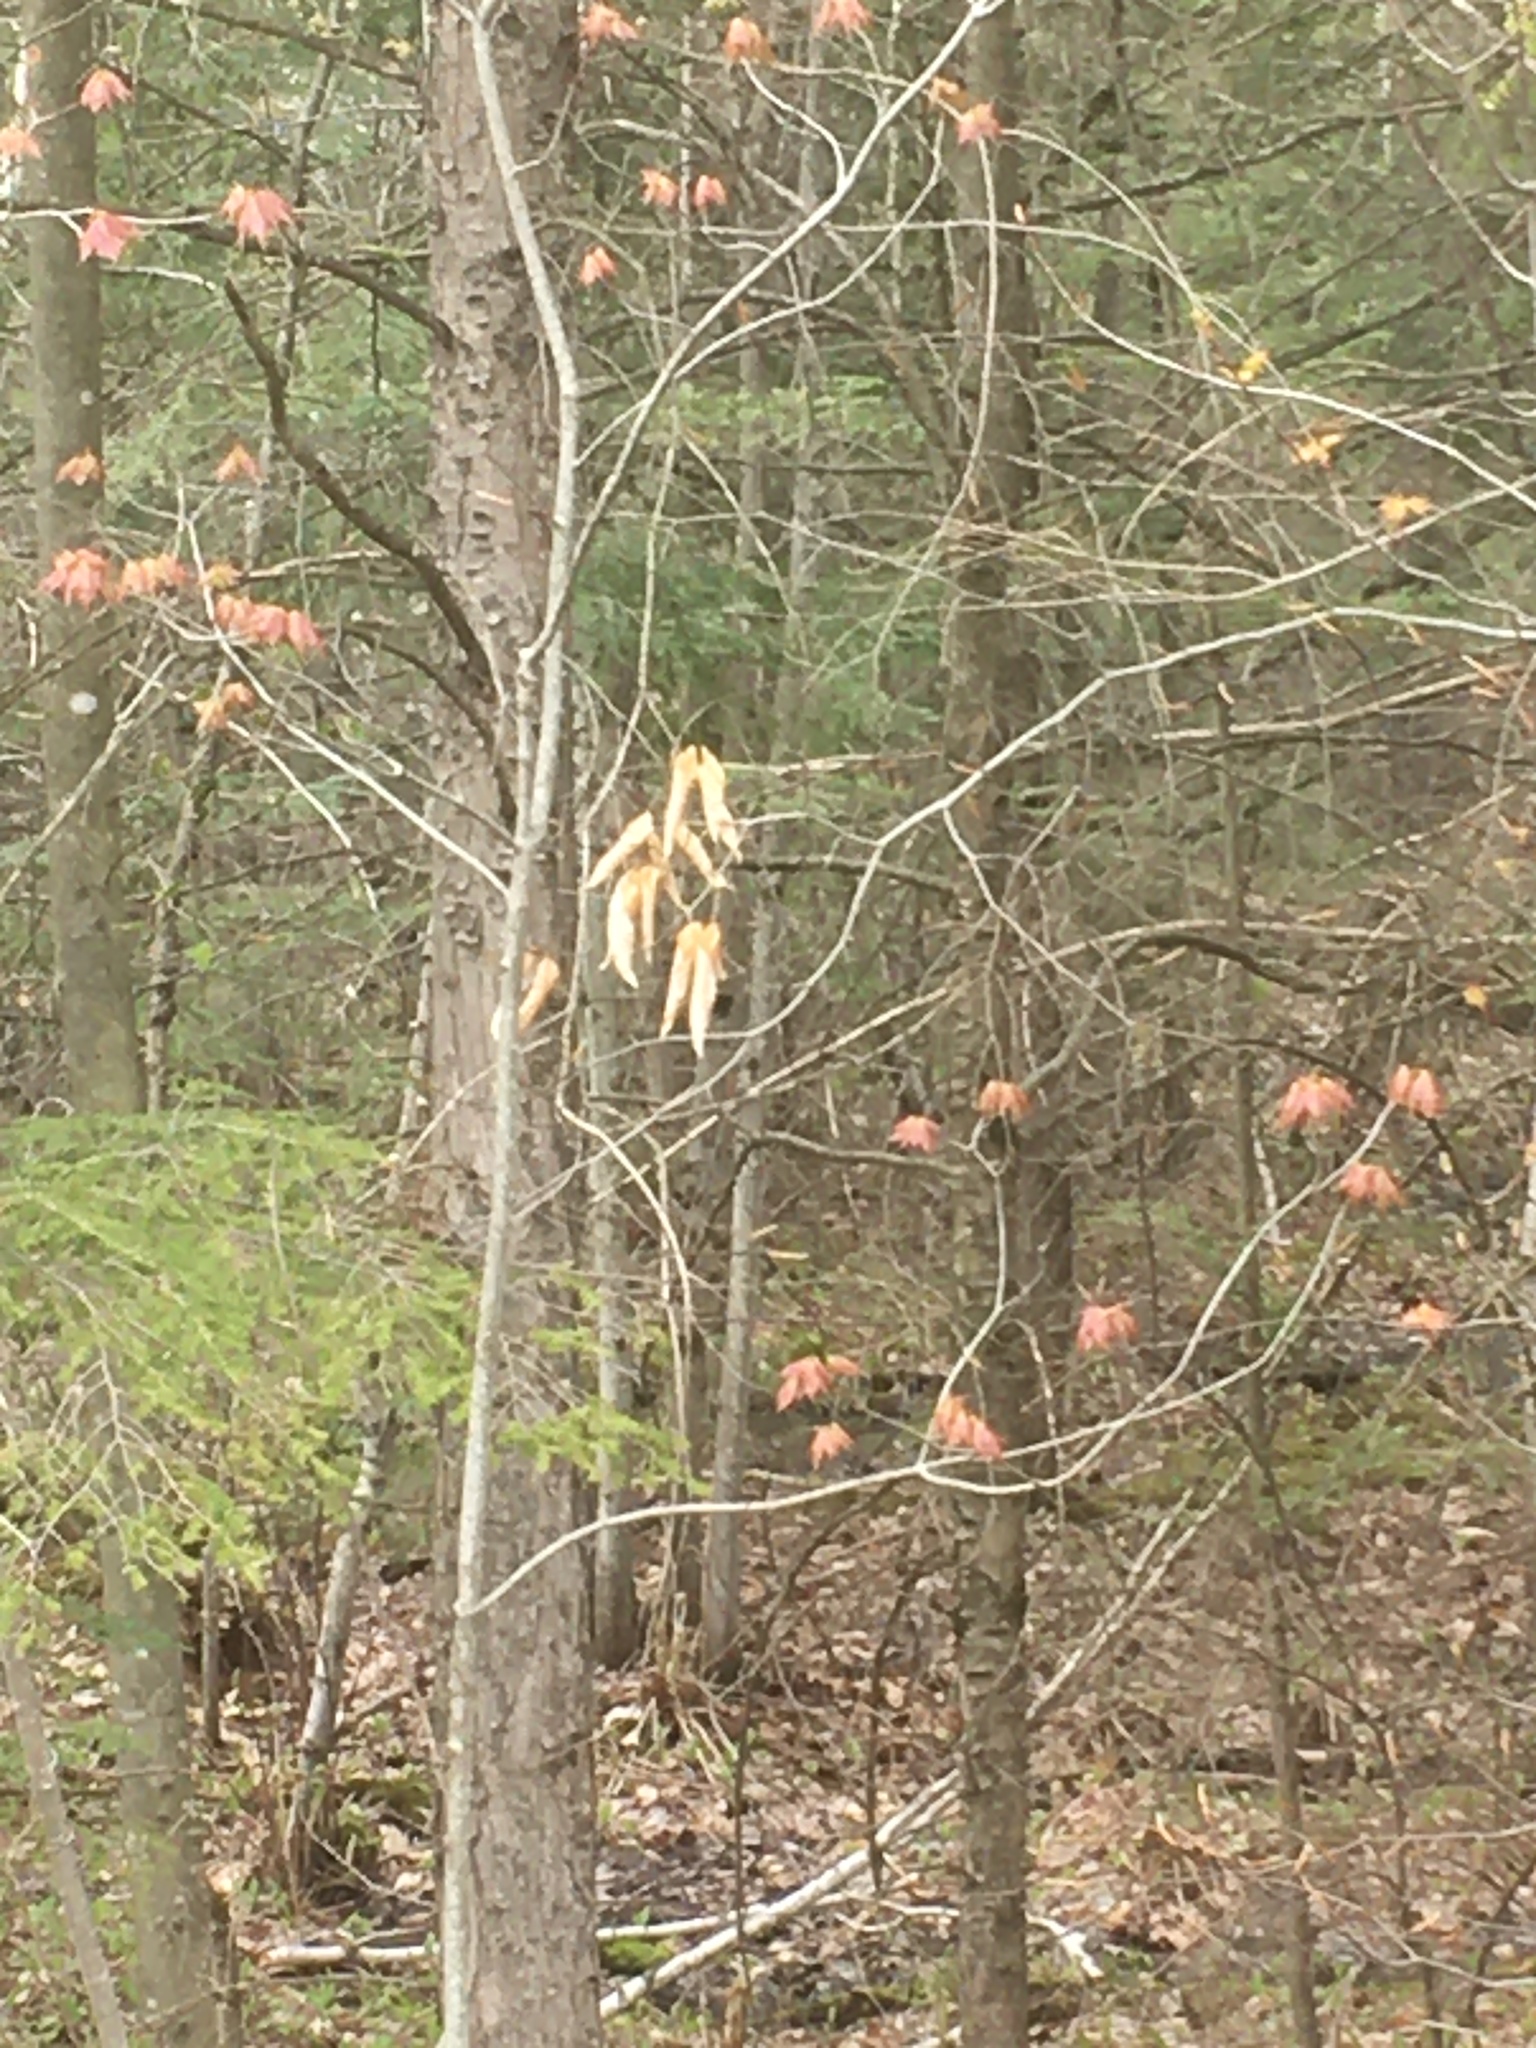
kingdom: Plantae
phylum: Tracheophyta
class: Magnoliopsida
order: Fagales
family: Fagaceae
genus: Fagus
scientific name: Fagus grandifolia
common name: American beech
